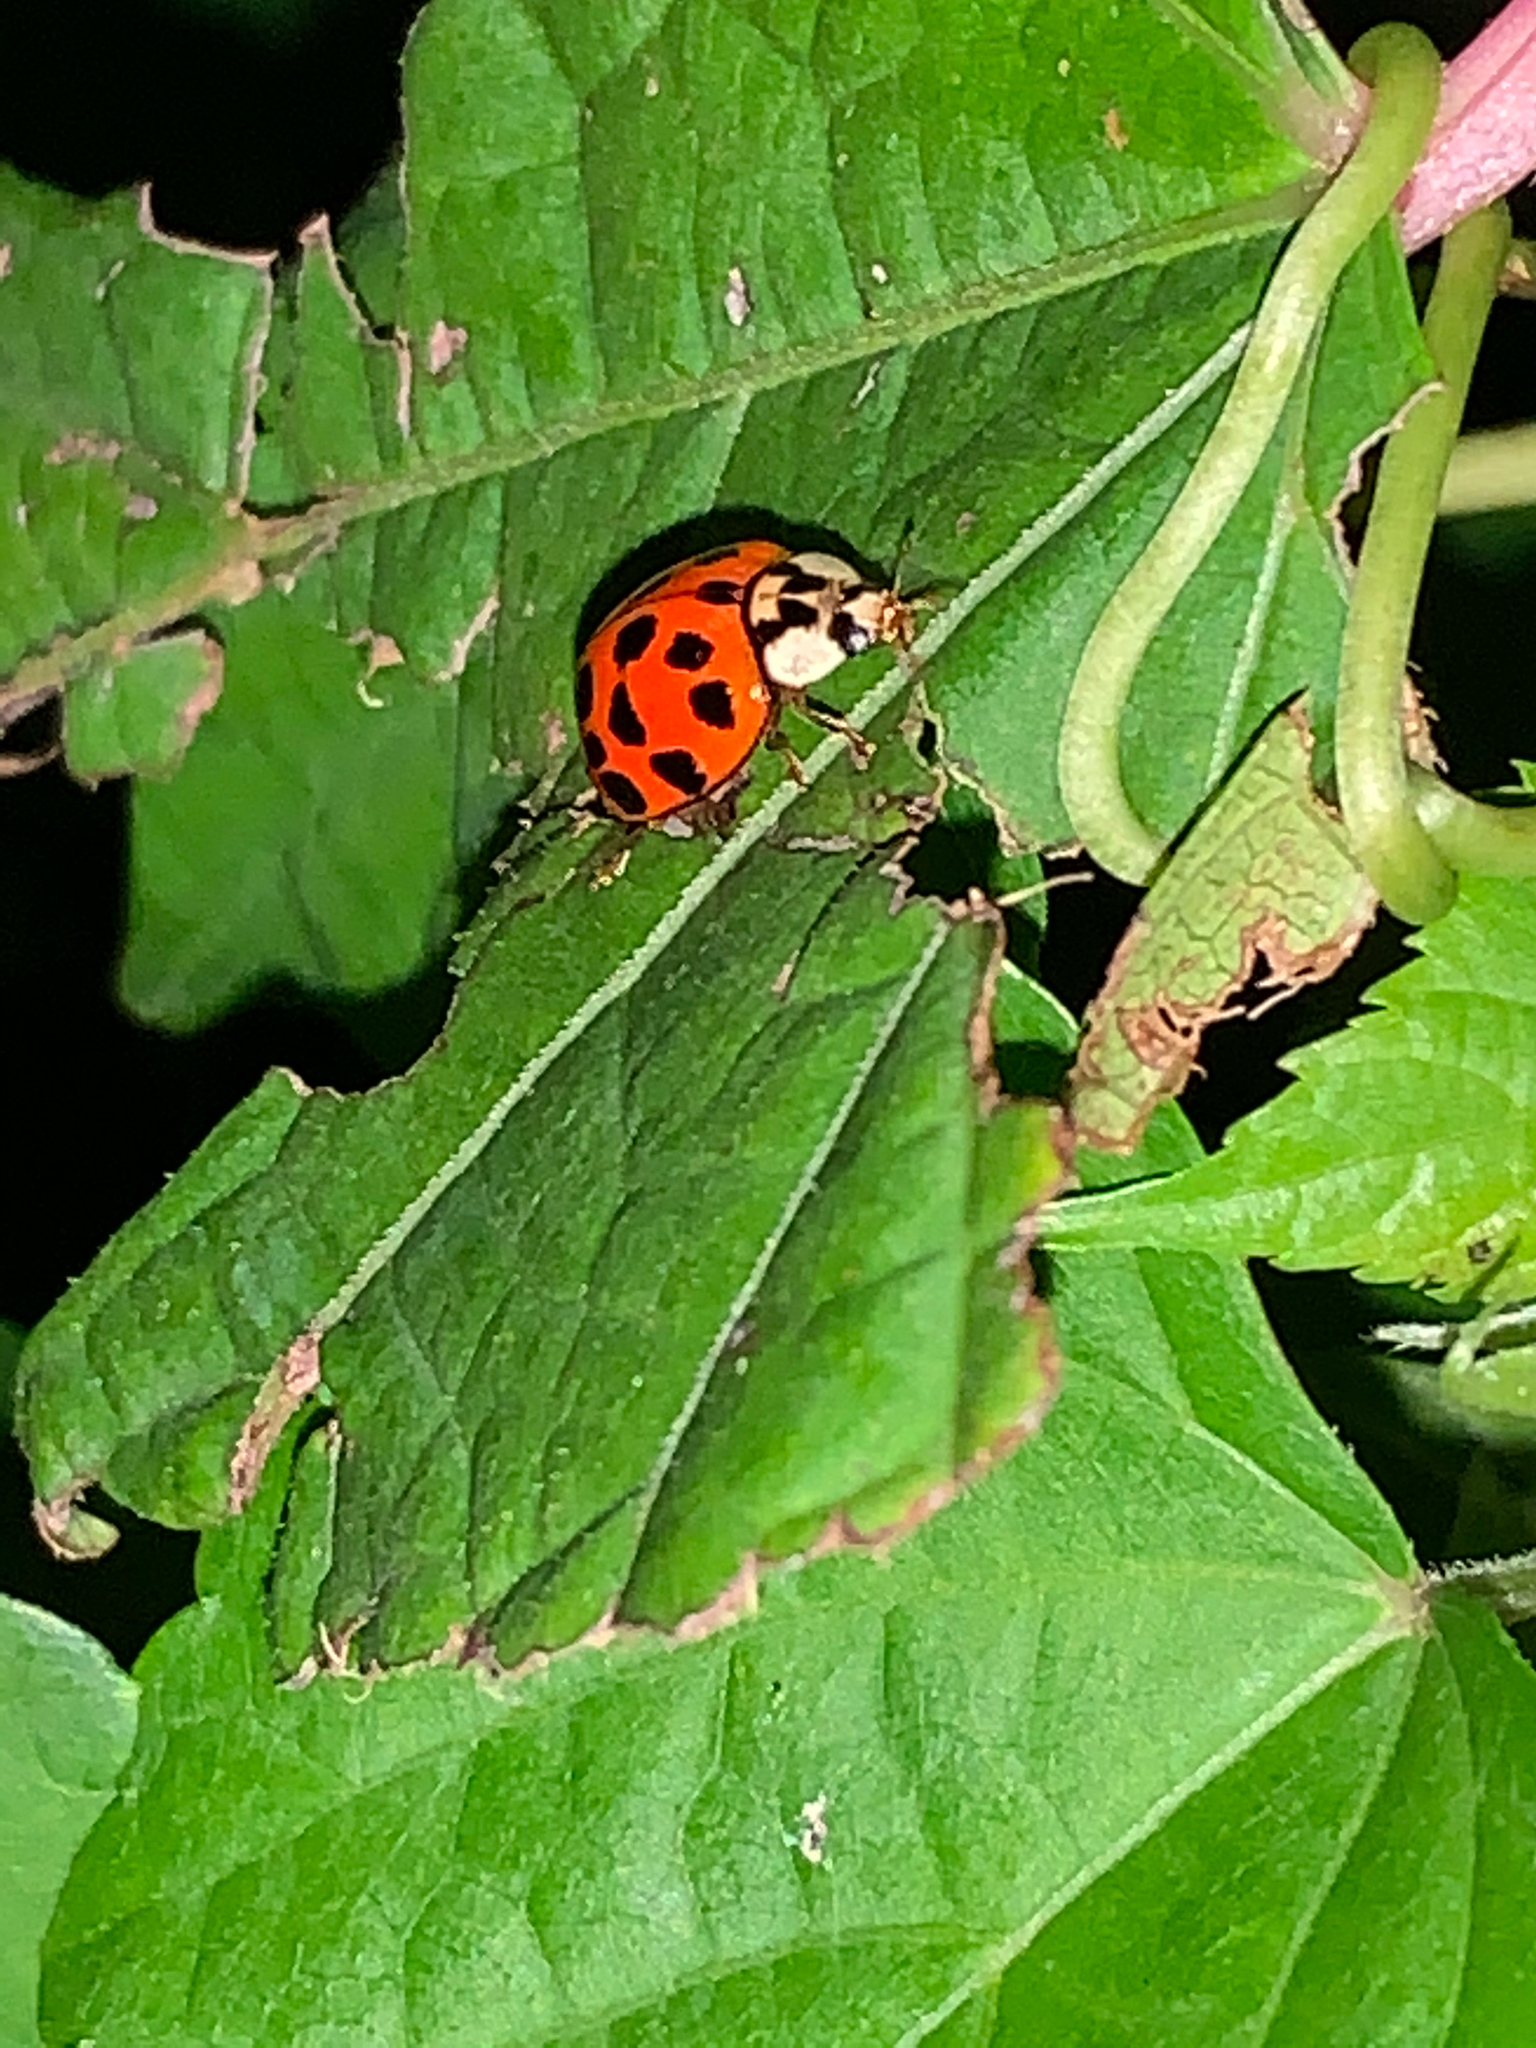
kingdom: Animalia
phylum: Arthropoda
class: Insecta
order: Coleoptera
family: Coccinellidae
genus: Harmonia
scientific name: Harmonia axyridis
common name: Harlequin ladybird
